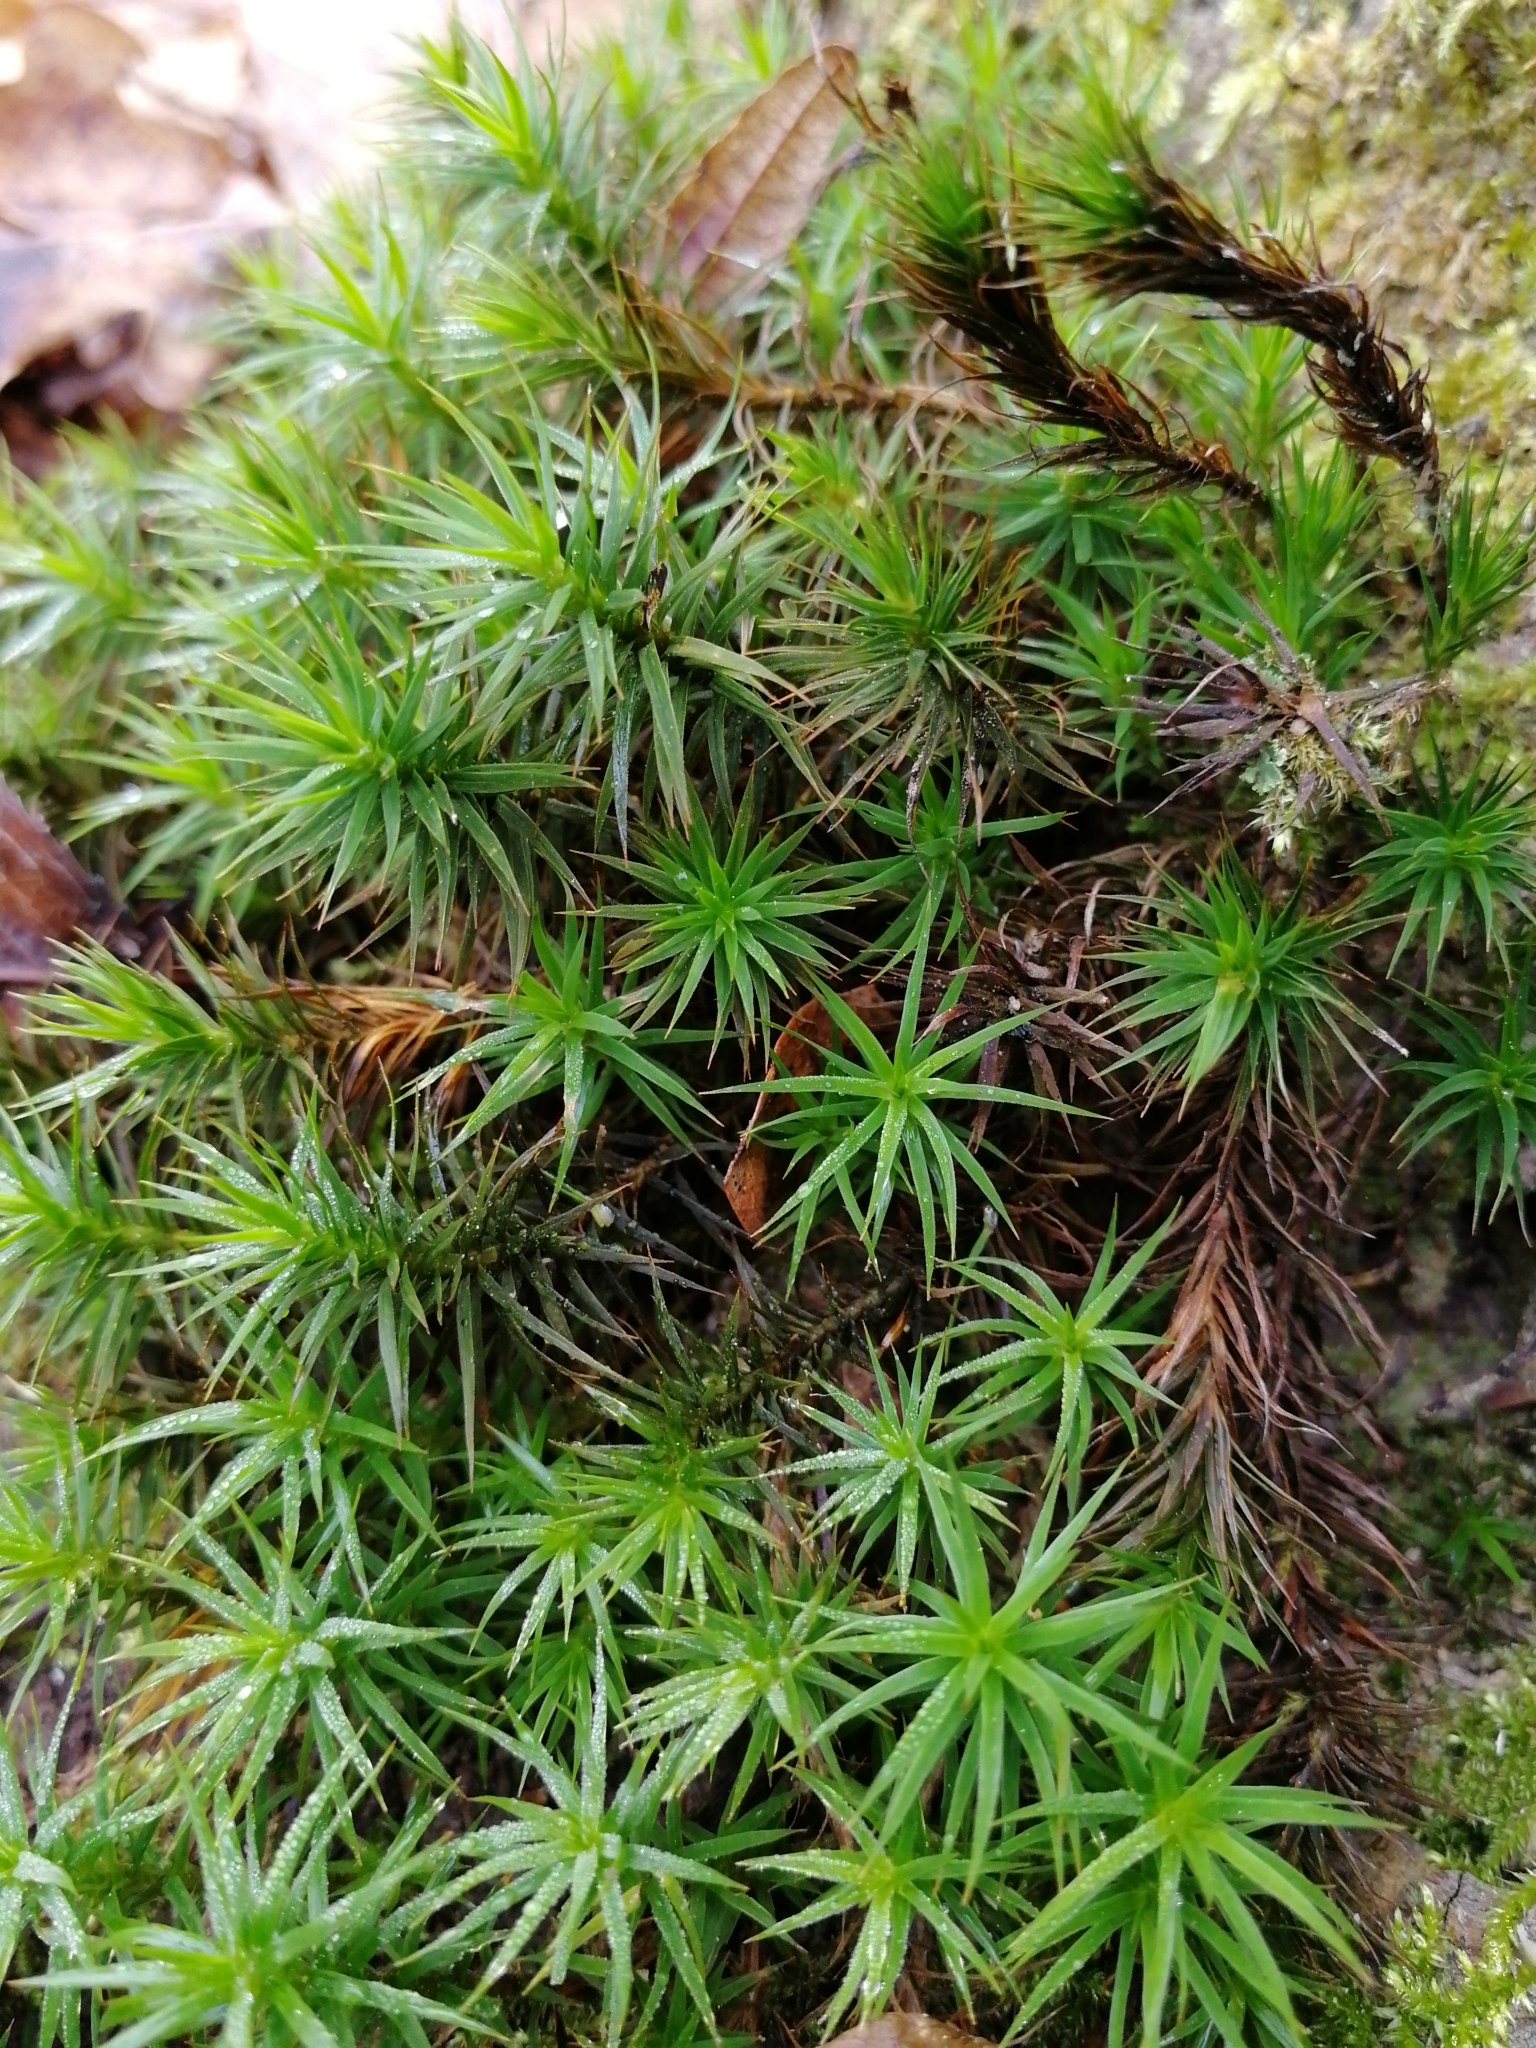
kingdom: Plantae
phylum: Bryophyta
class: Polytrichopsida
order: Polytrichales
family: Polytrichaceae
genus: Polytrichum
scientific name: Polytrichum formosum
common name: Bank haircap moss
